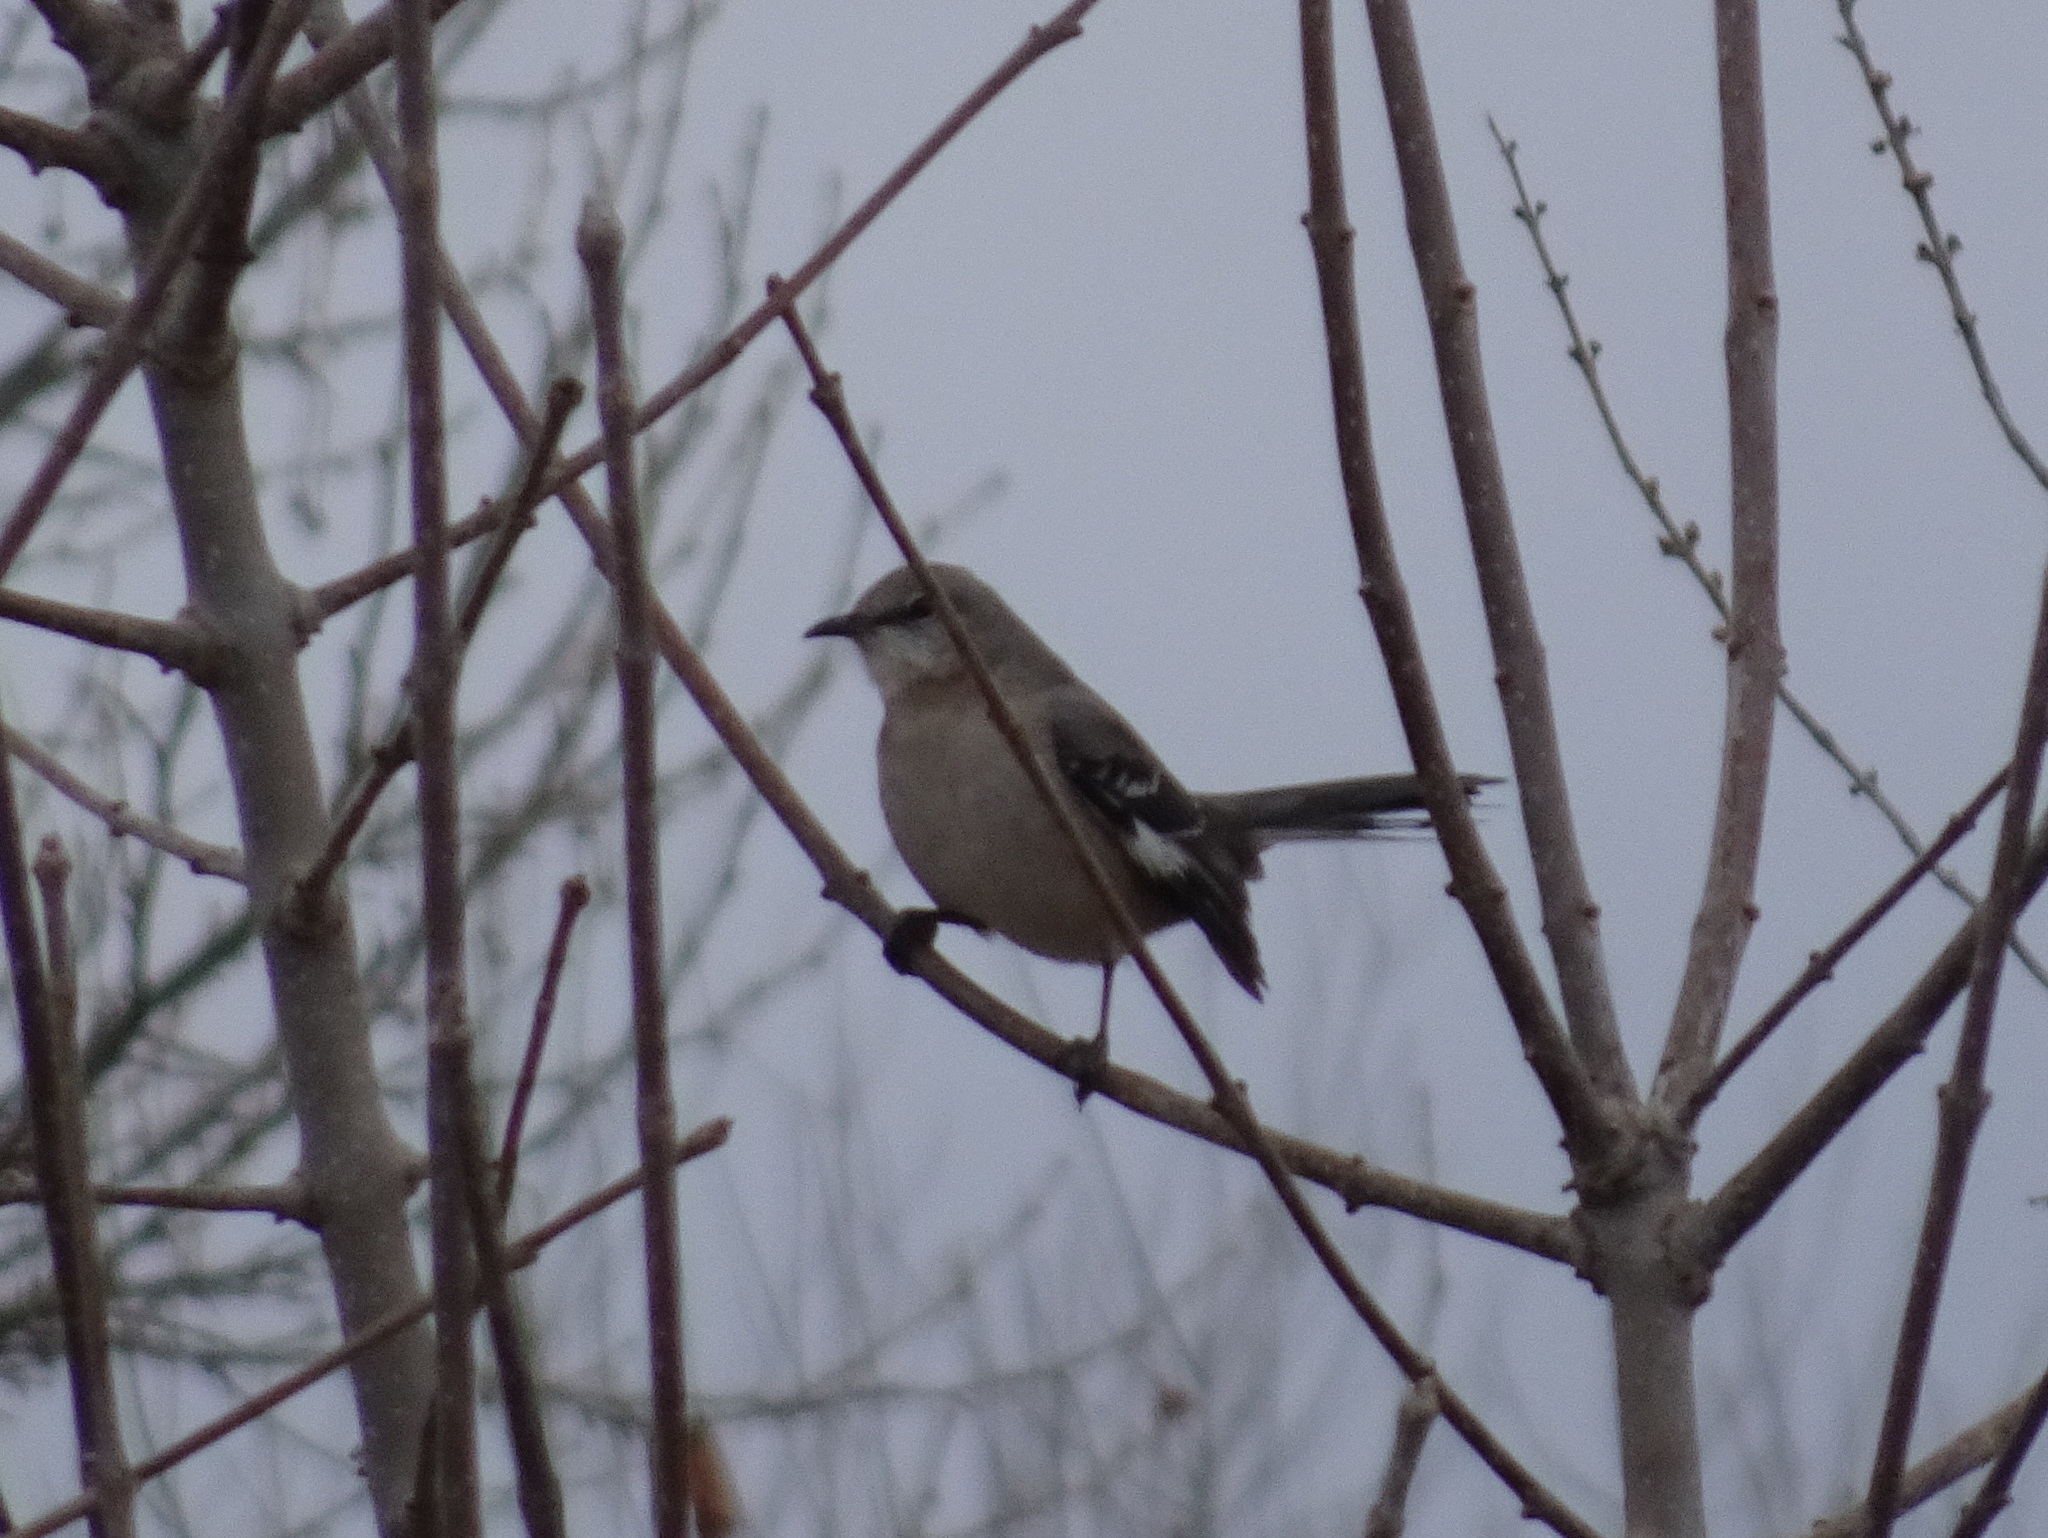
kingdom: Animalia
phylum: Chordata
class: Aves
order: Passeriformes
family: Mimidae
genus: Mimus
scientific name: Mimus polyglottos
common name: Northern mockingbird
